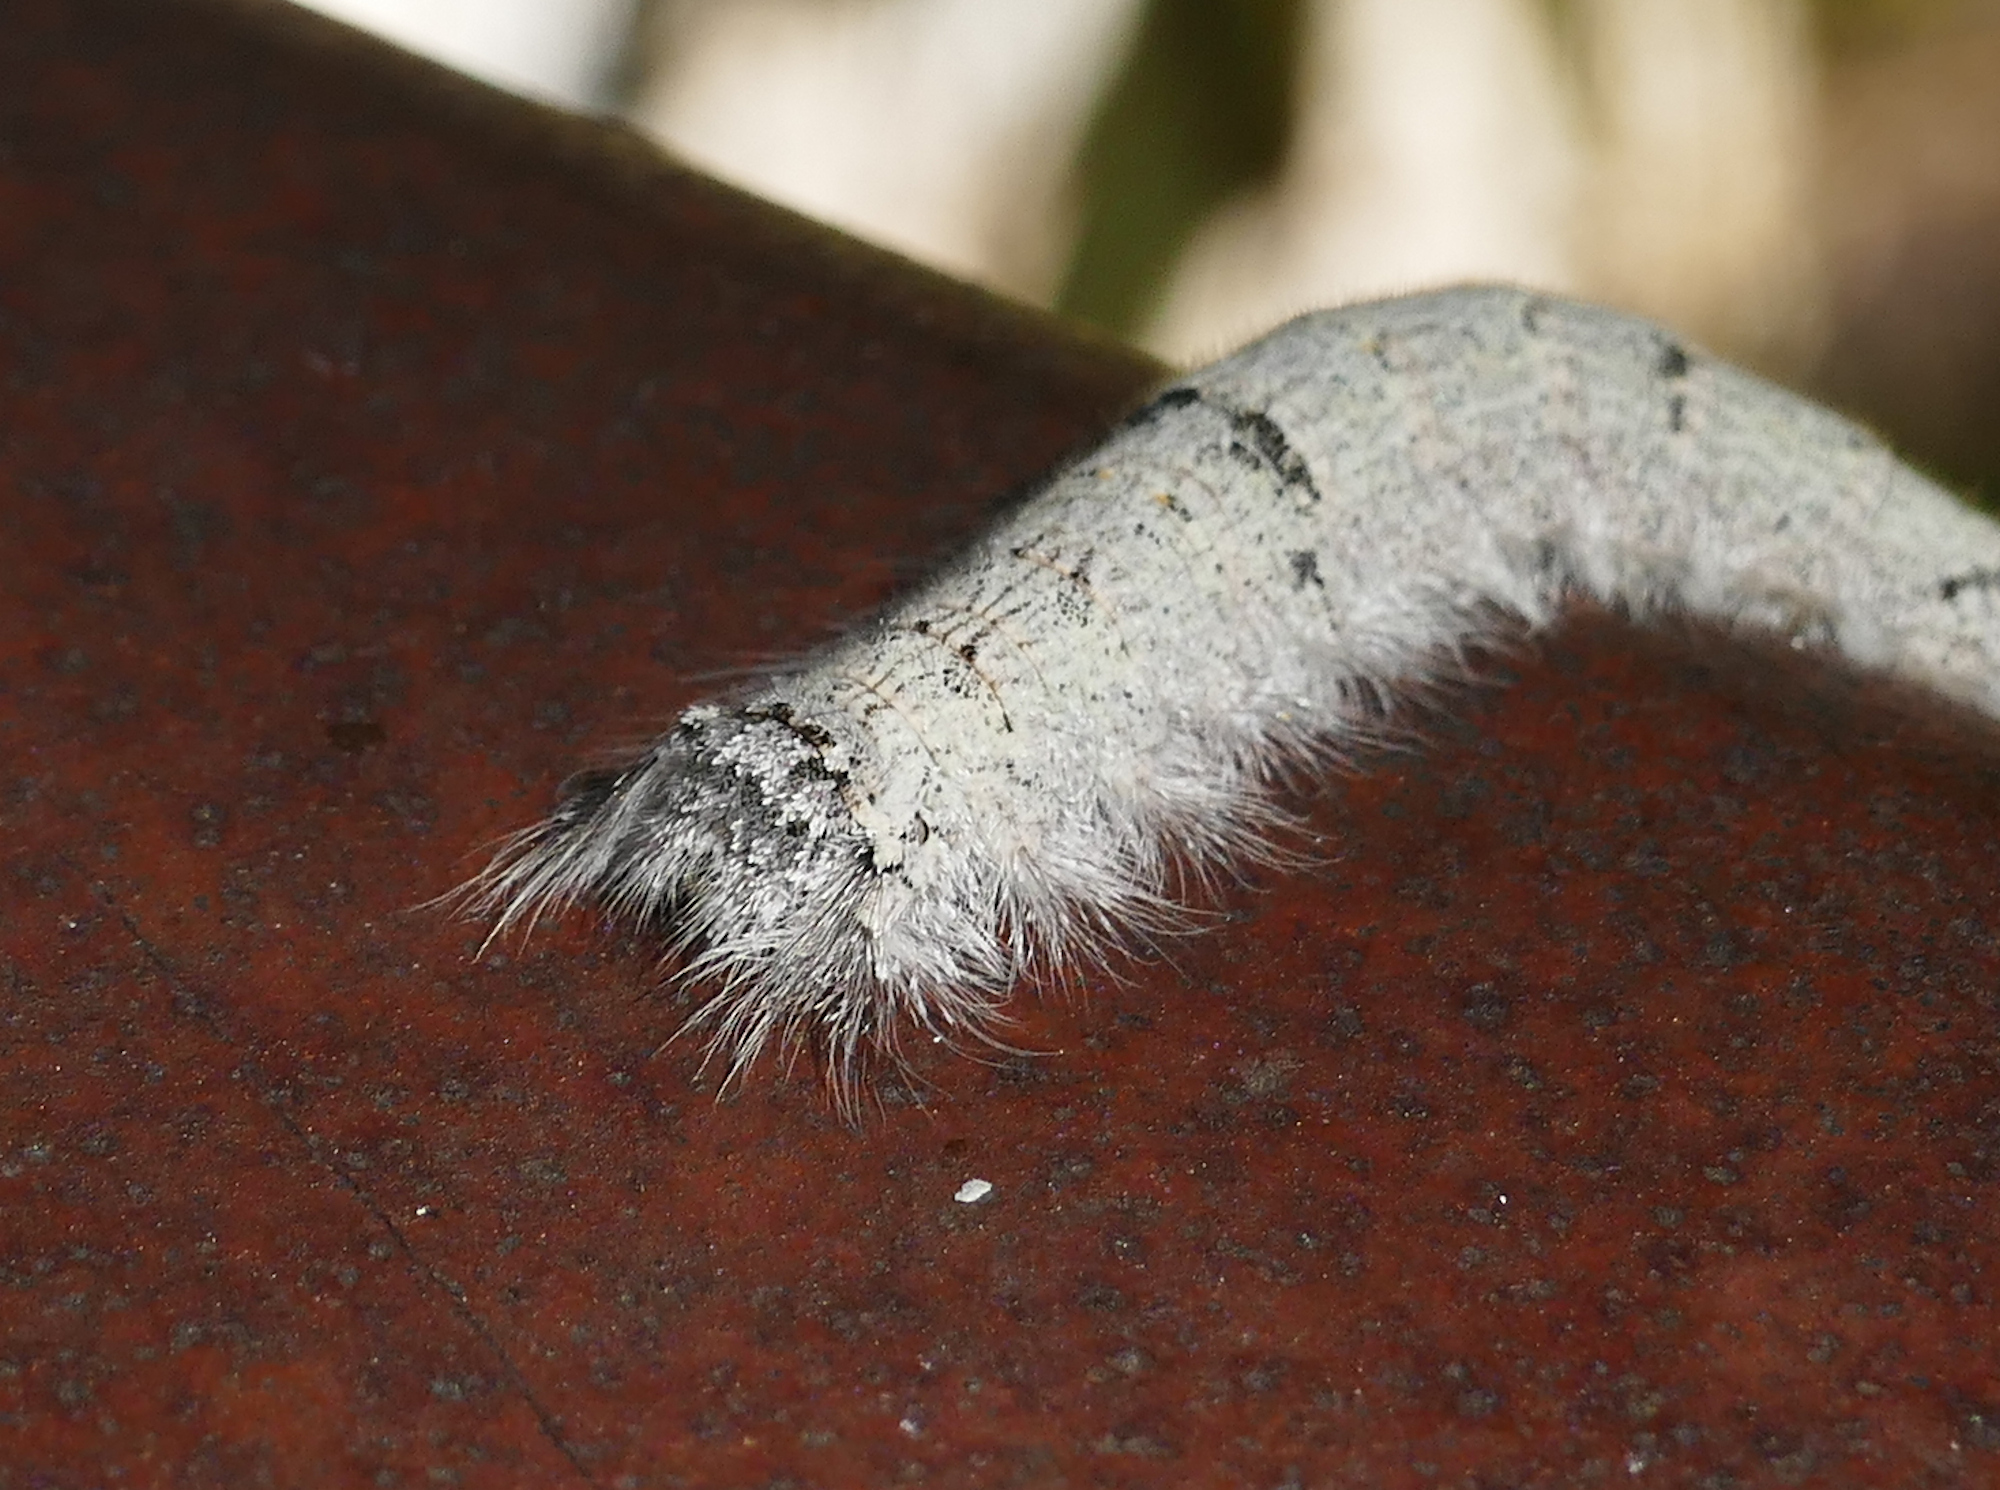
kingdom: Animalia
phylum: Arthropoda
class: Insecta
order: Lepidoptera
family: Lasiocampidae
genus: Phyllodesma
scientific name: Phyllodesma americana
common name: American lappet moth
